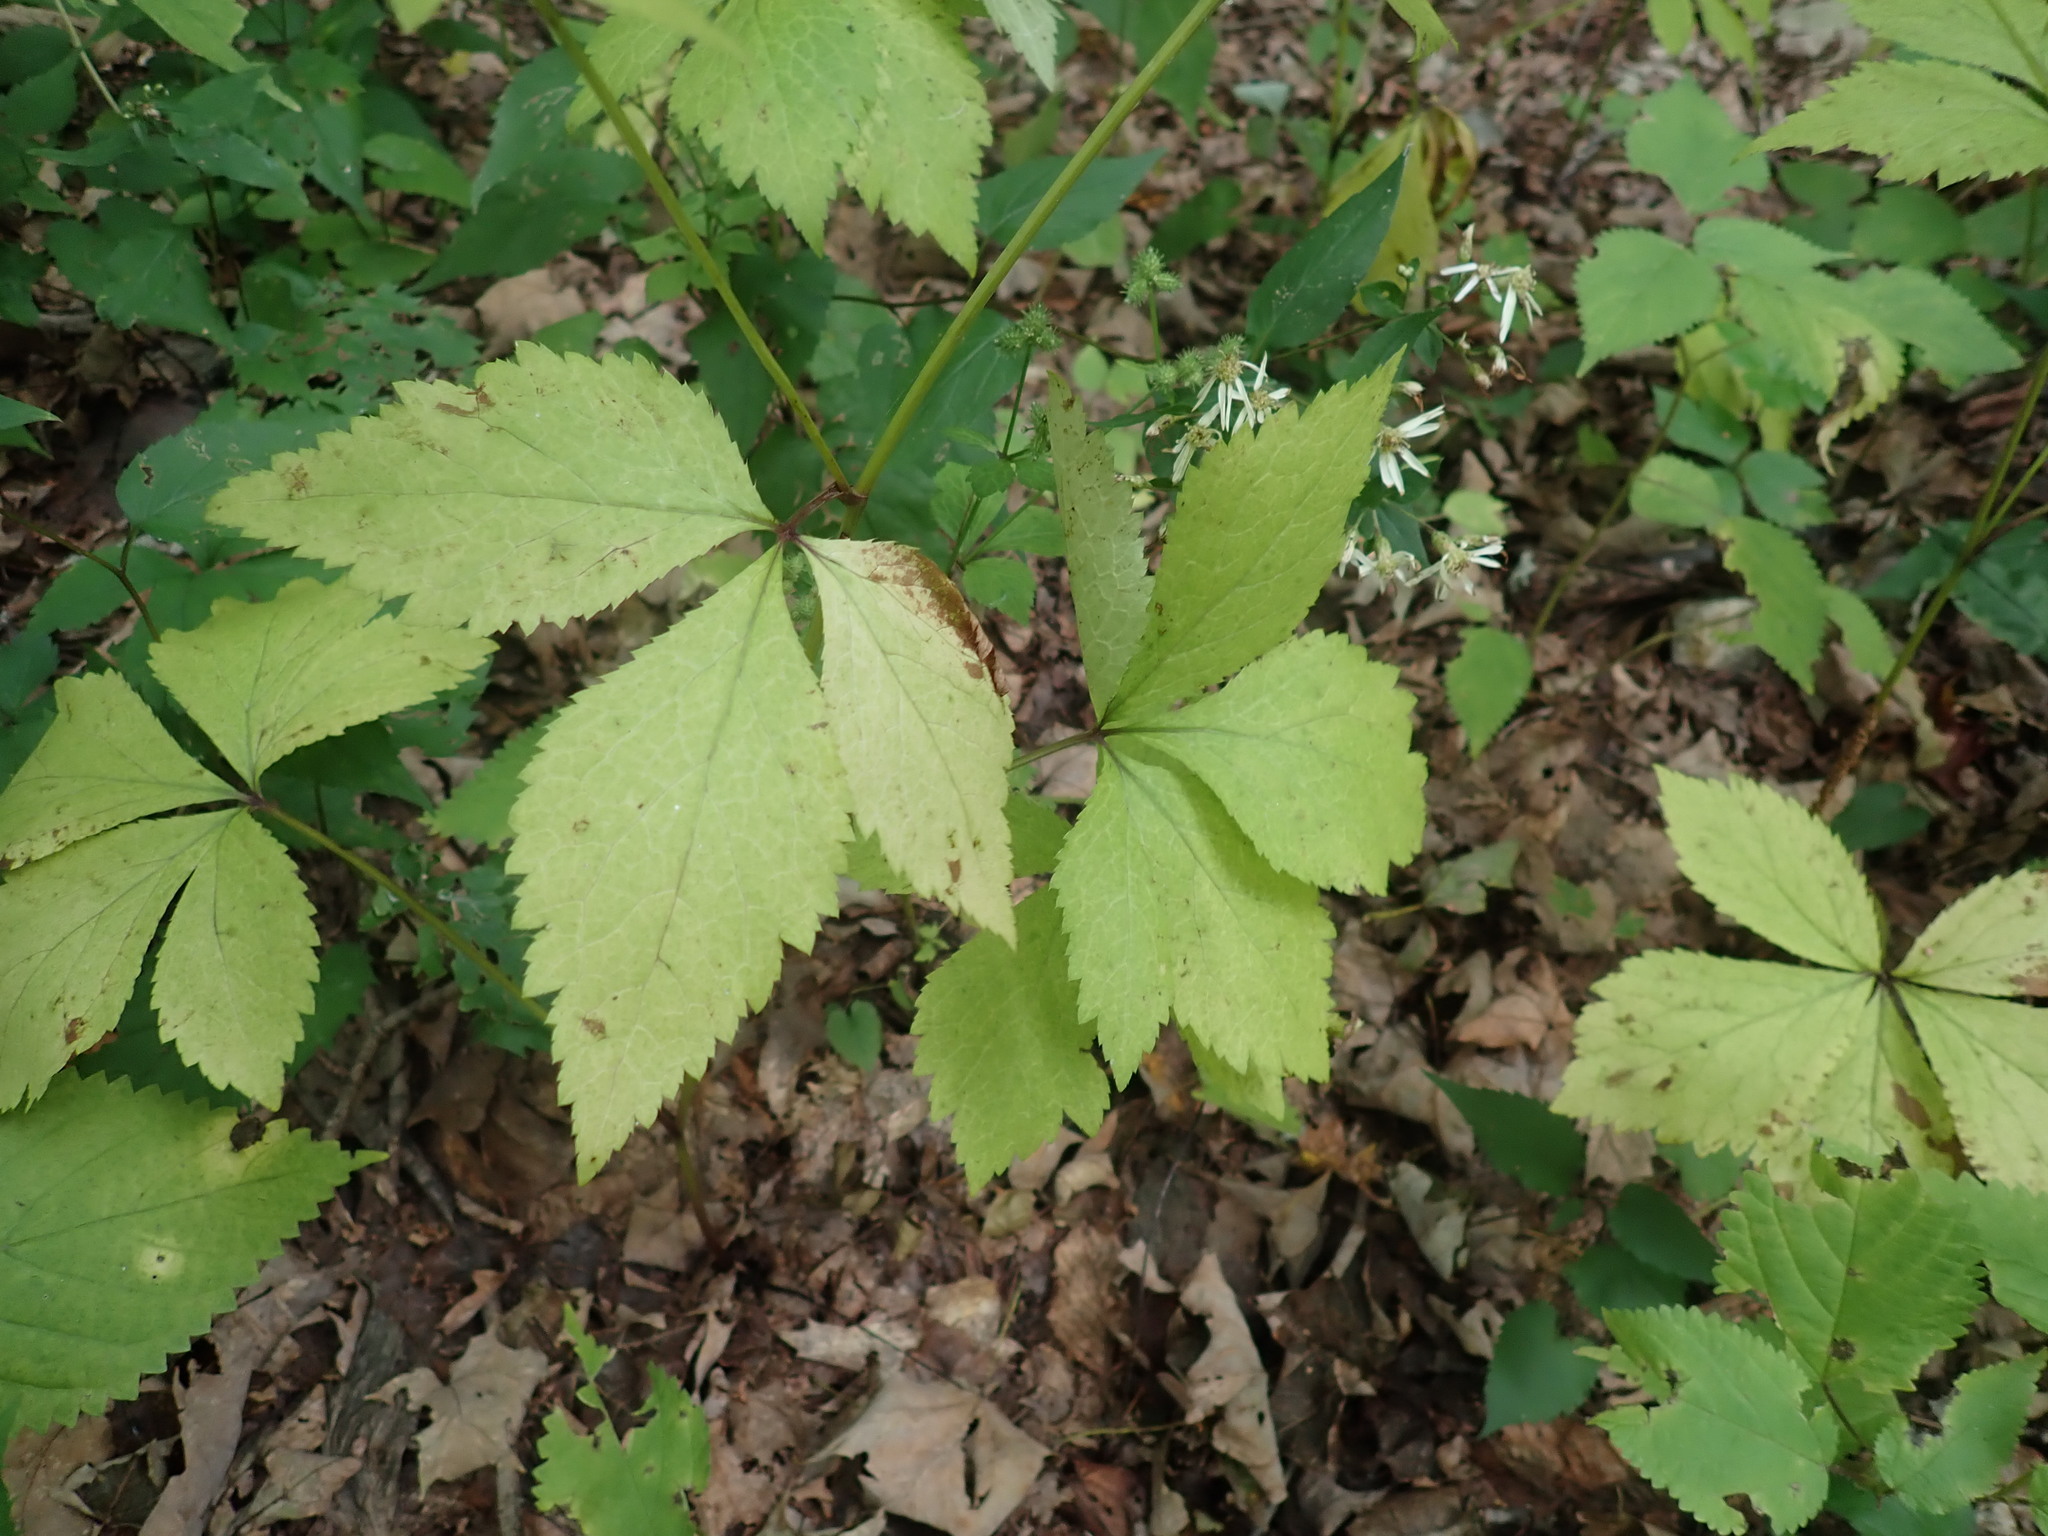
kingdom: Plantae
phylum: Tracheophyta
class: Magnoliopsida
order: Apiales
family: Apiaceae
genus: Sanicula
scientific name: Sanicula trifoliata
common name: Beaked sanicle
